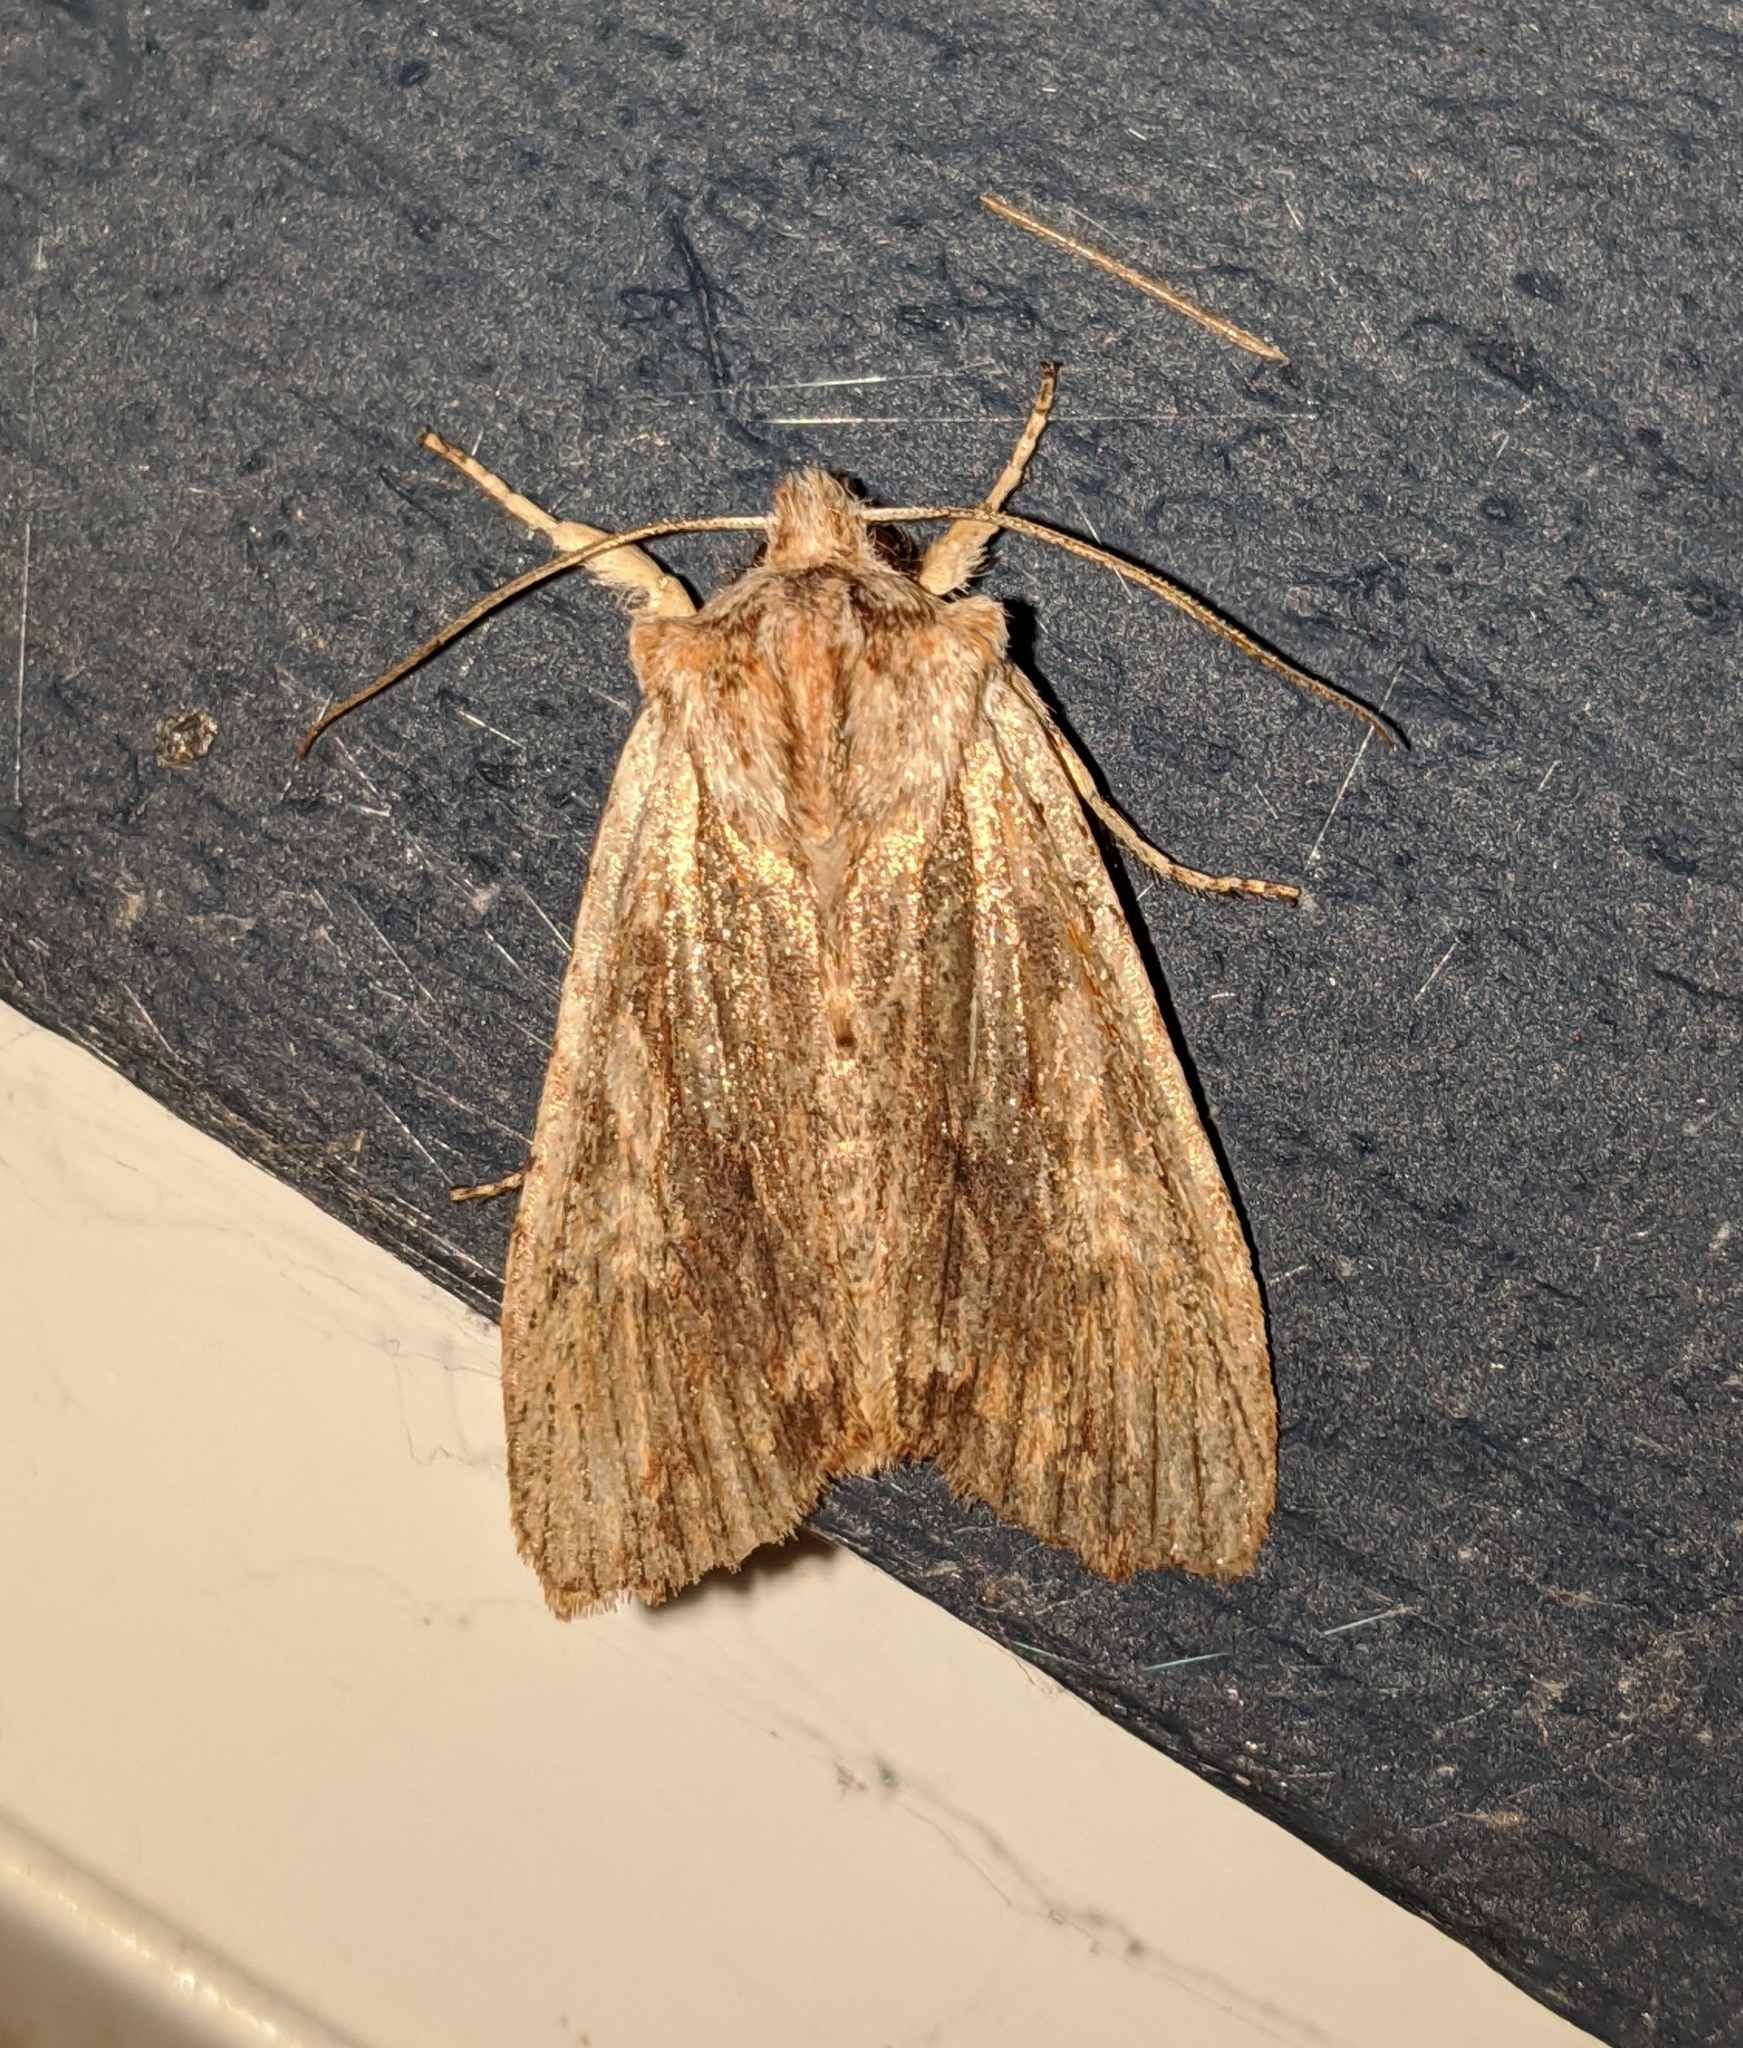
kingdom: Animalia
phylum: Arthropoda
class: Insecta
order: Lepidoptera
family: Noctuidae
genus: Lithophane
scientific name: Lithophane petulca
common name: Wanton pinion
